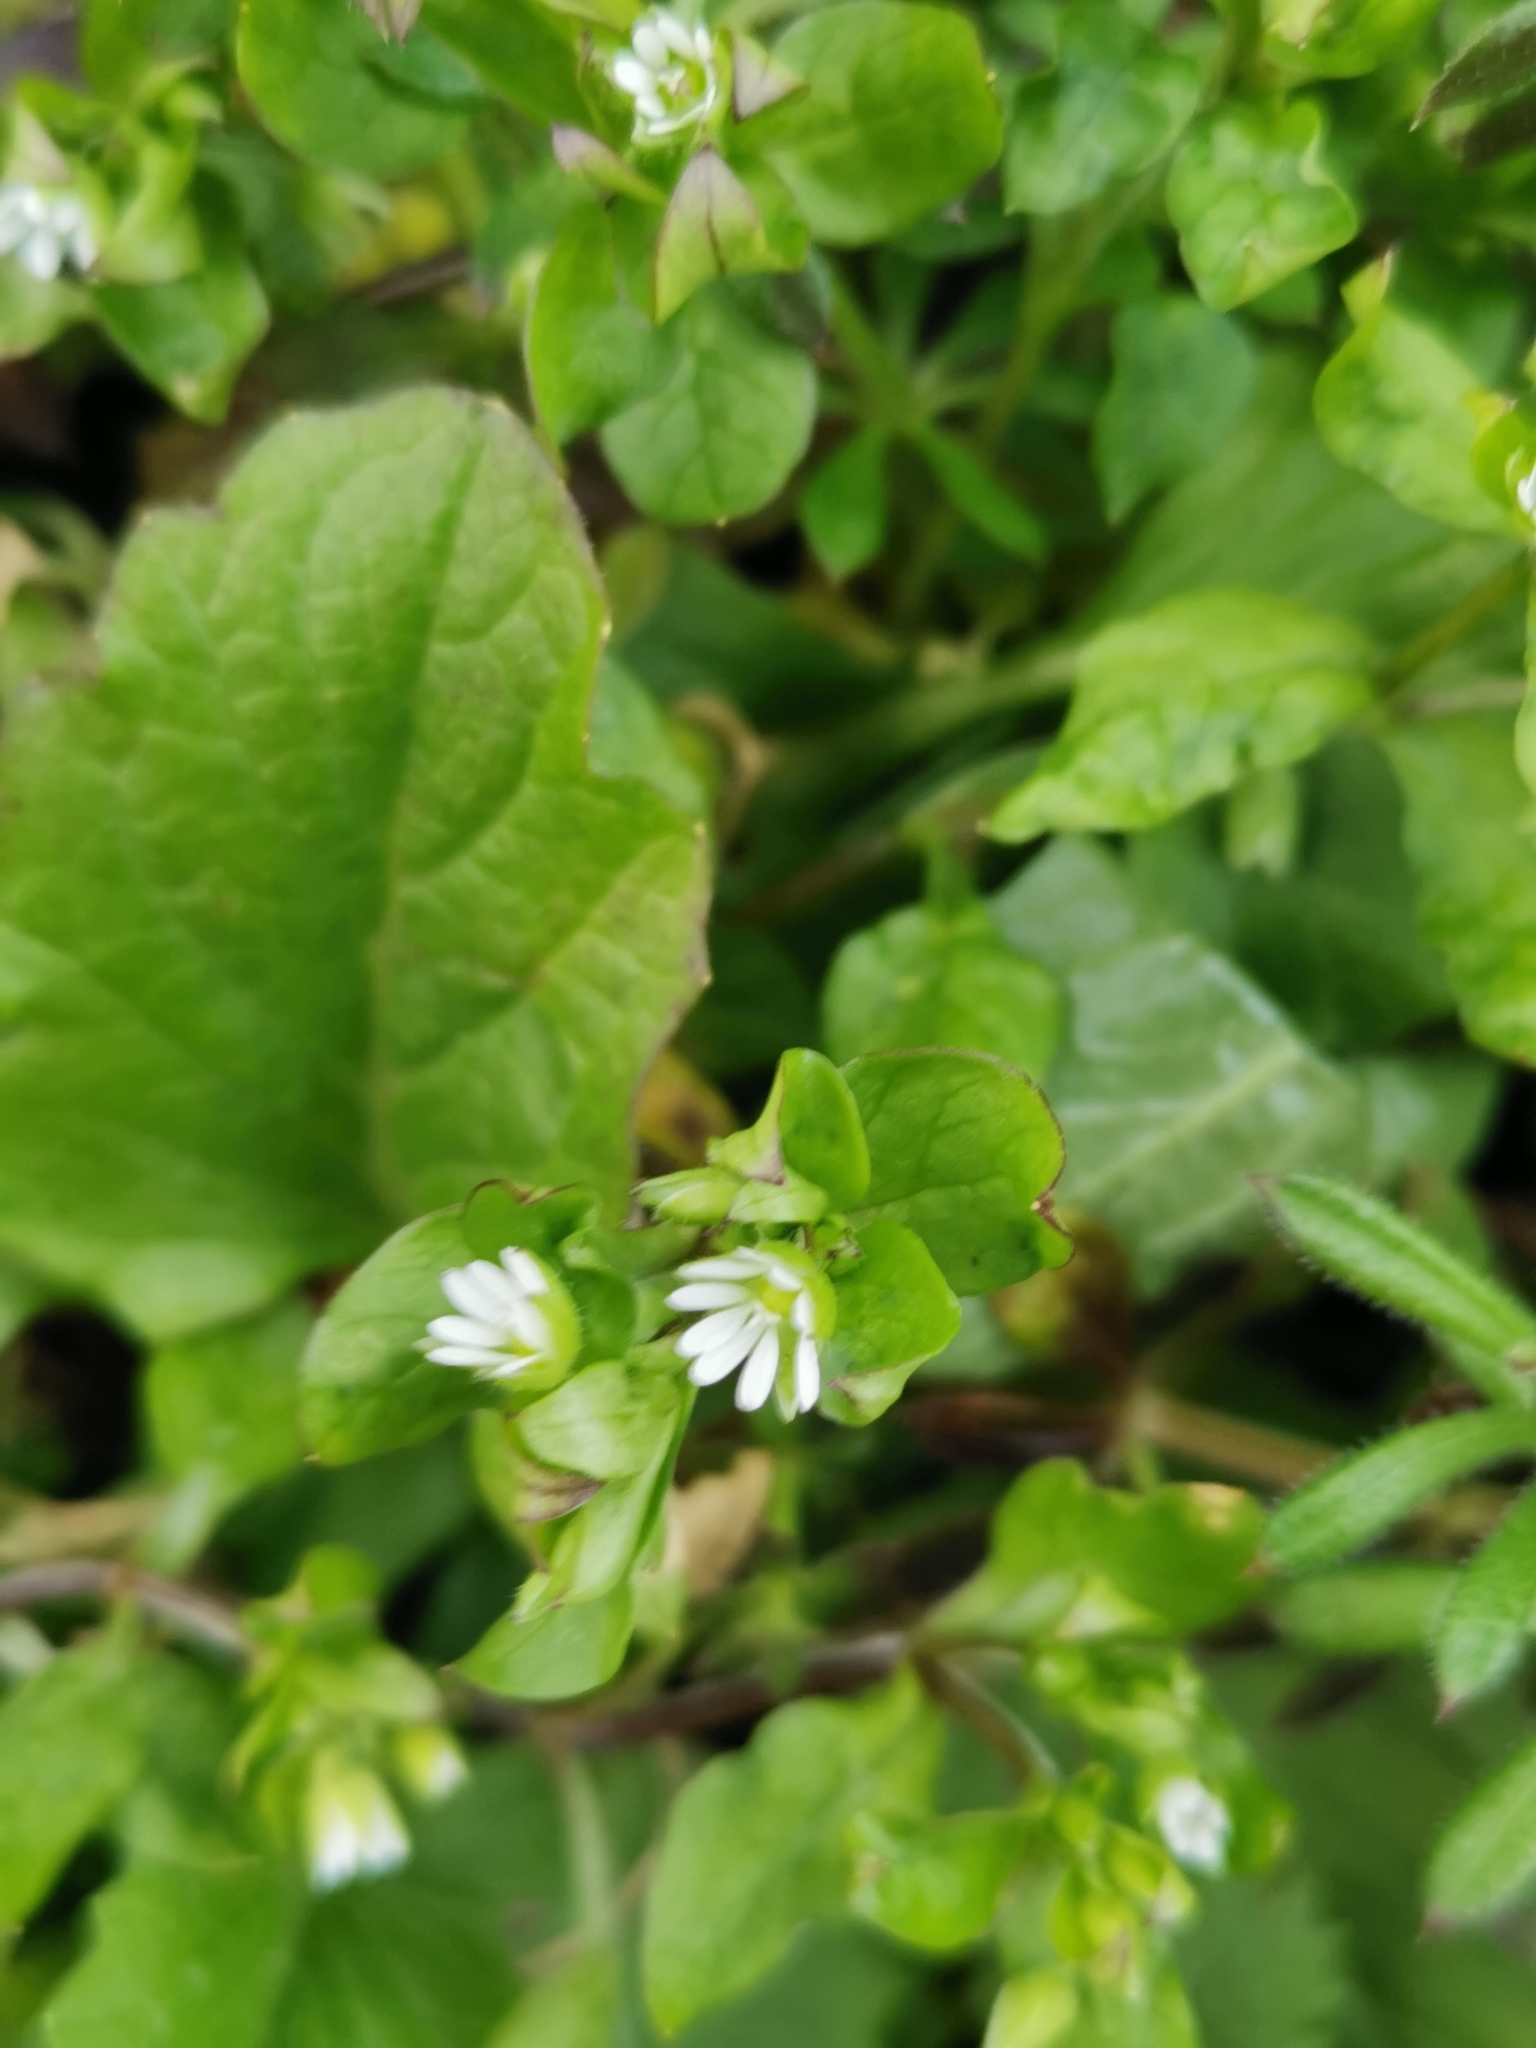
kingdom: Plantae
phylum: Tracheophyta
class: Magnoliopsida
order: Caryophyllales
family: Caryophyllaceae
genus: Stellaria
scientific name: Stellaria media
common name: Common chickweed
